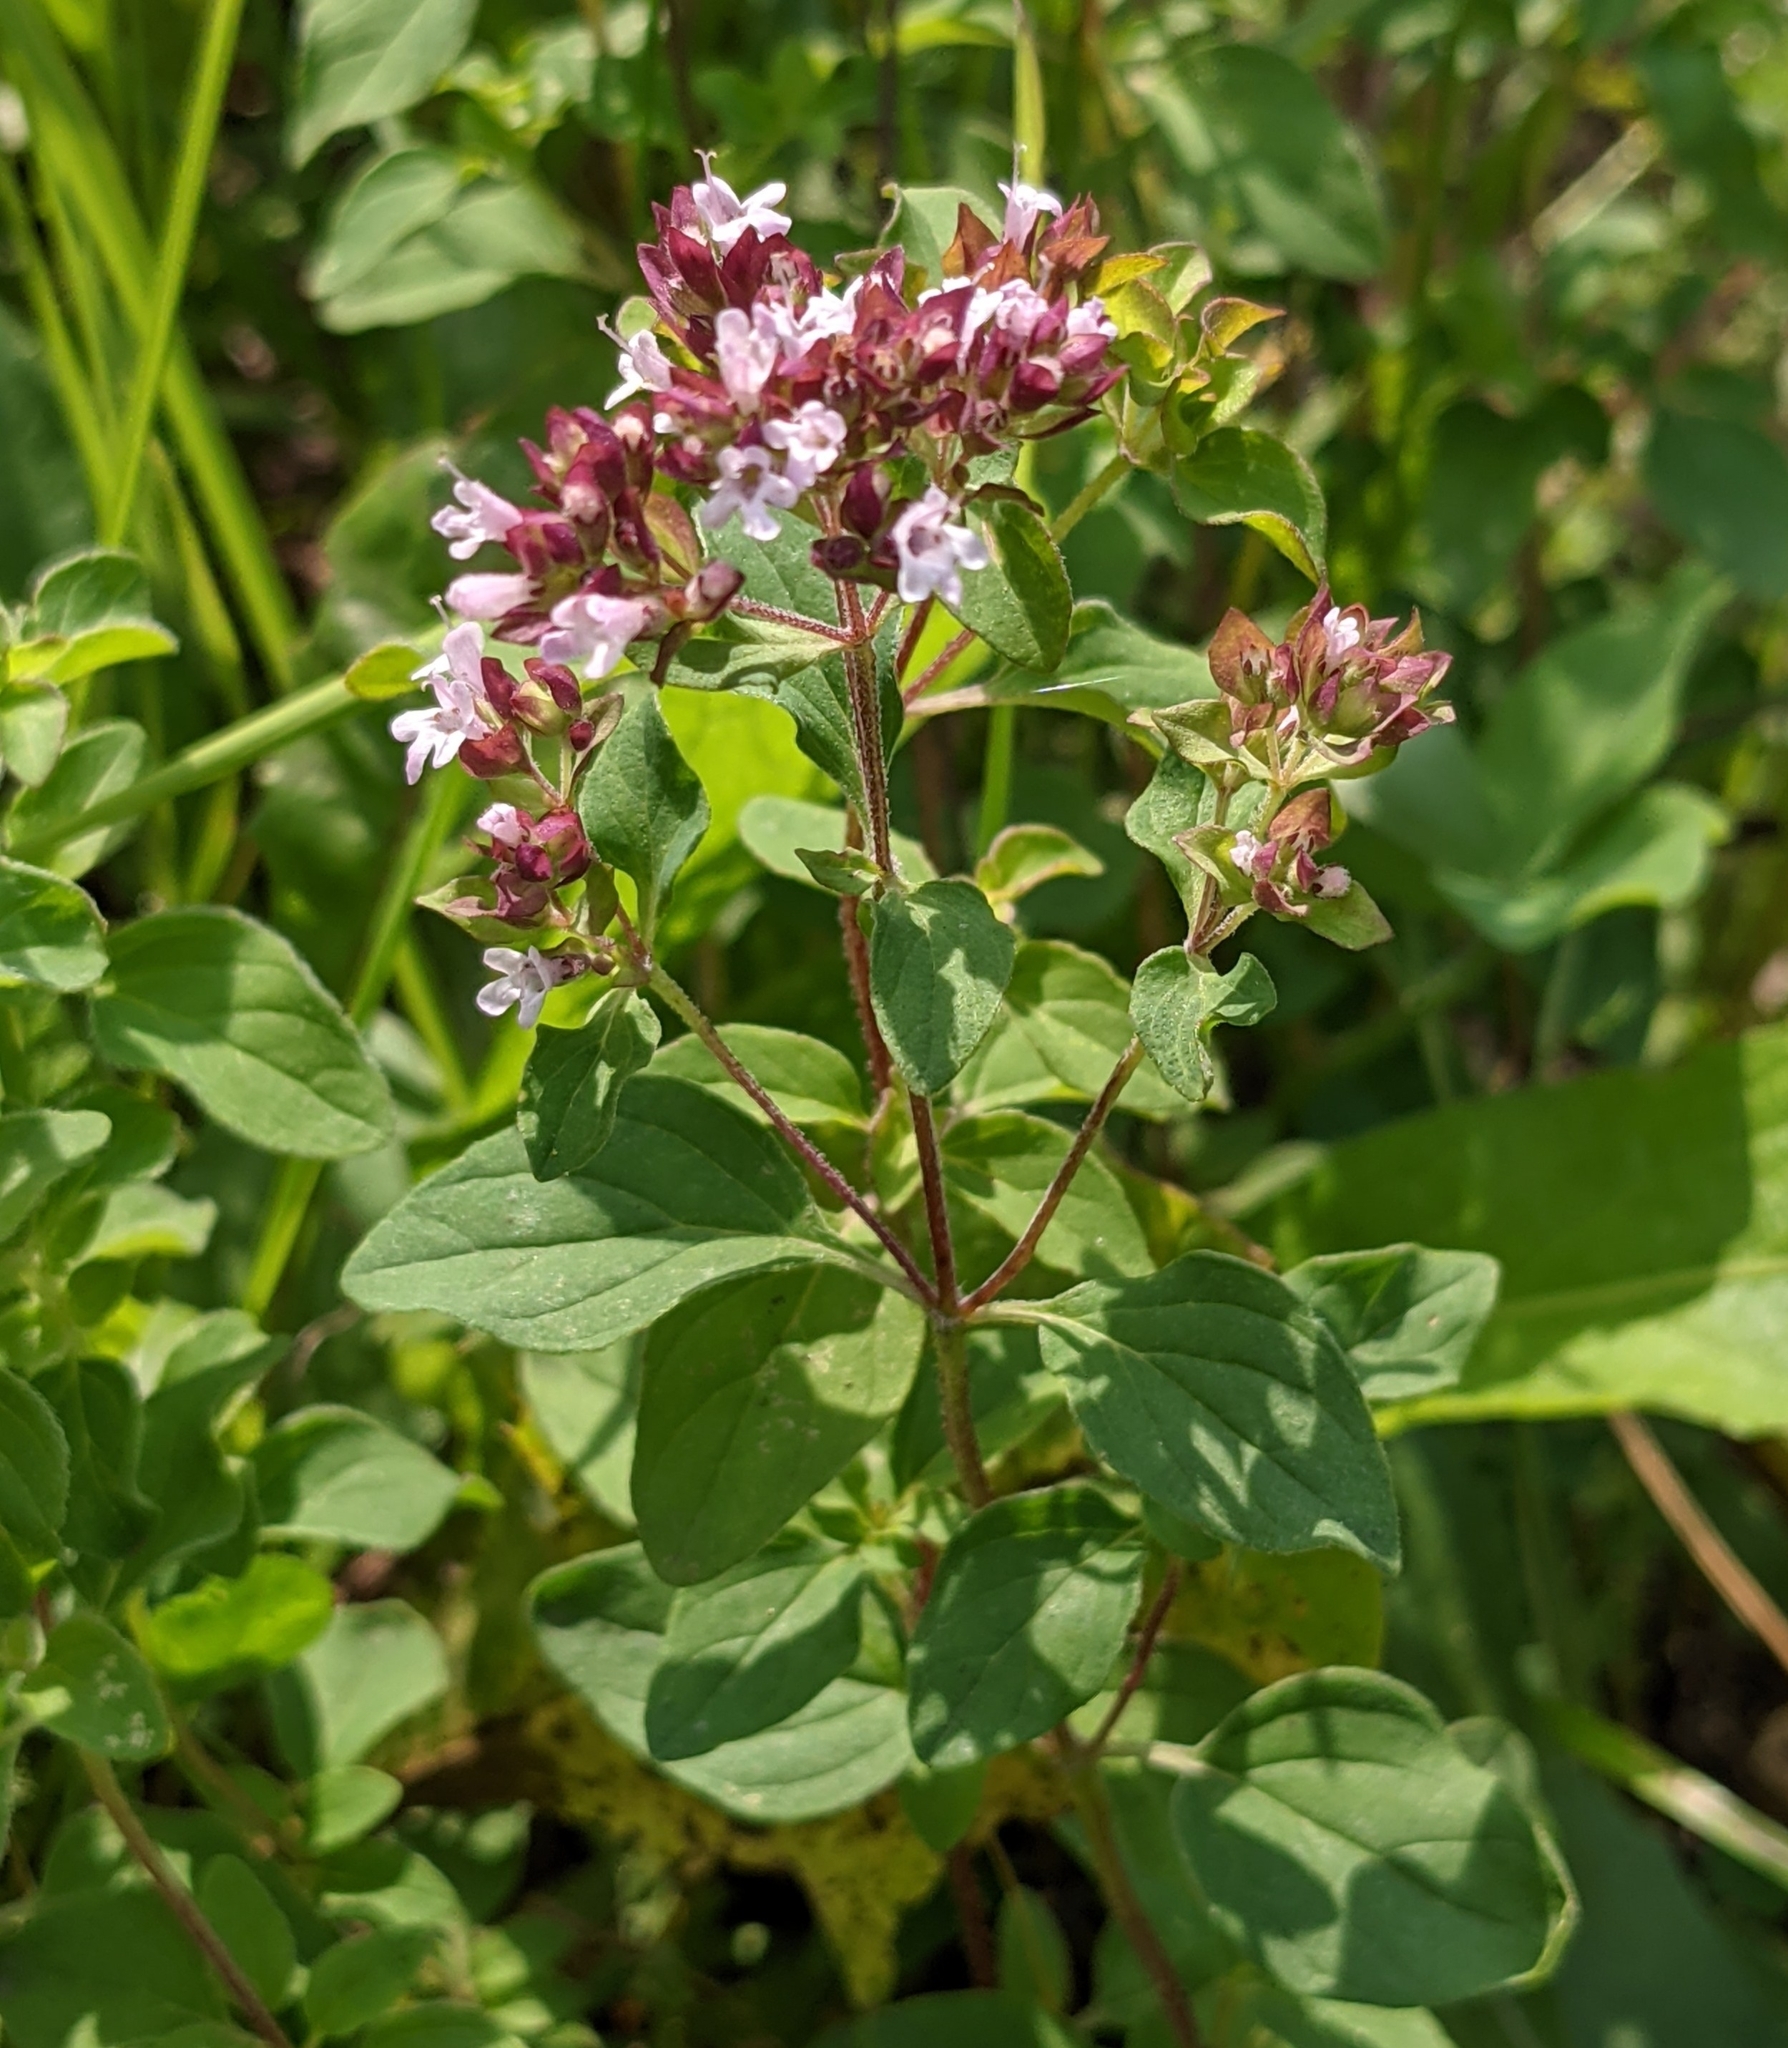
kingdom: Plantae
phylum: Tracheophyta
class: Magnoliopsida
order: Lamiales
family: Lamiaceae
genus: Origanum
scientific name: Origanum vulgare
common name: Wild marjoram
